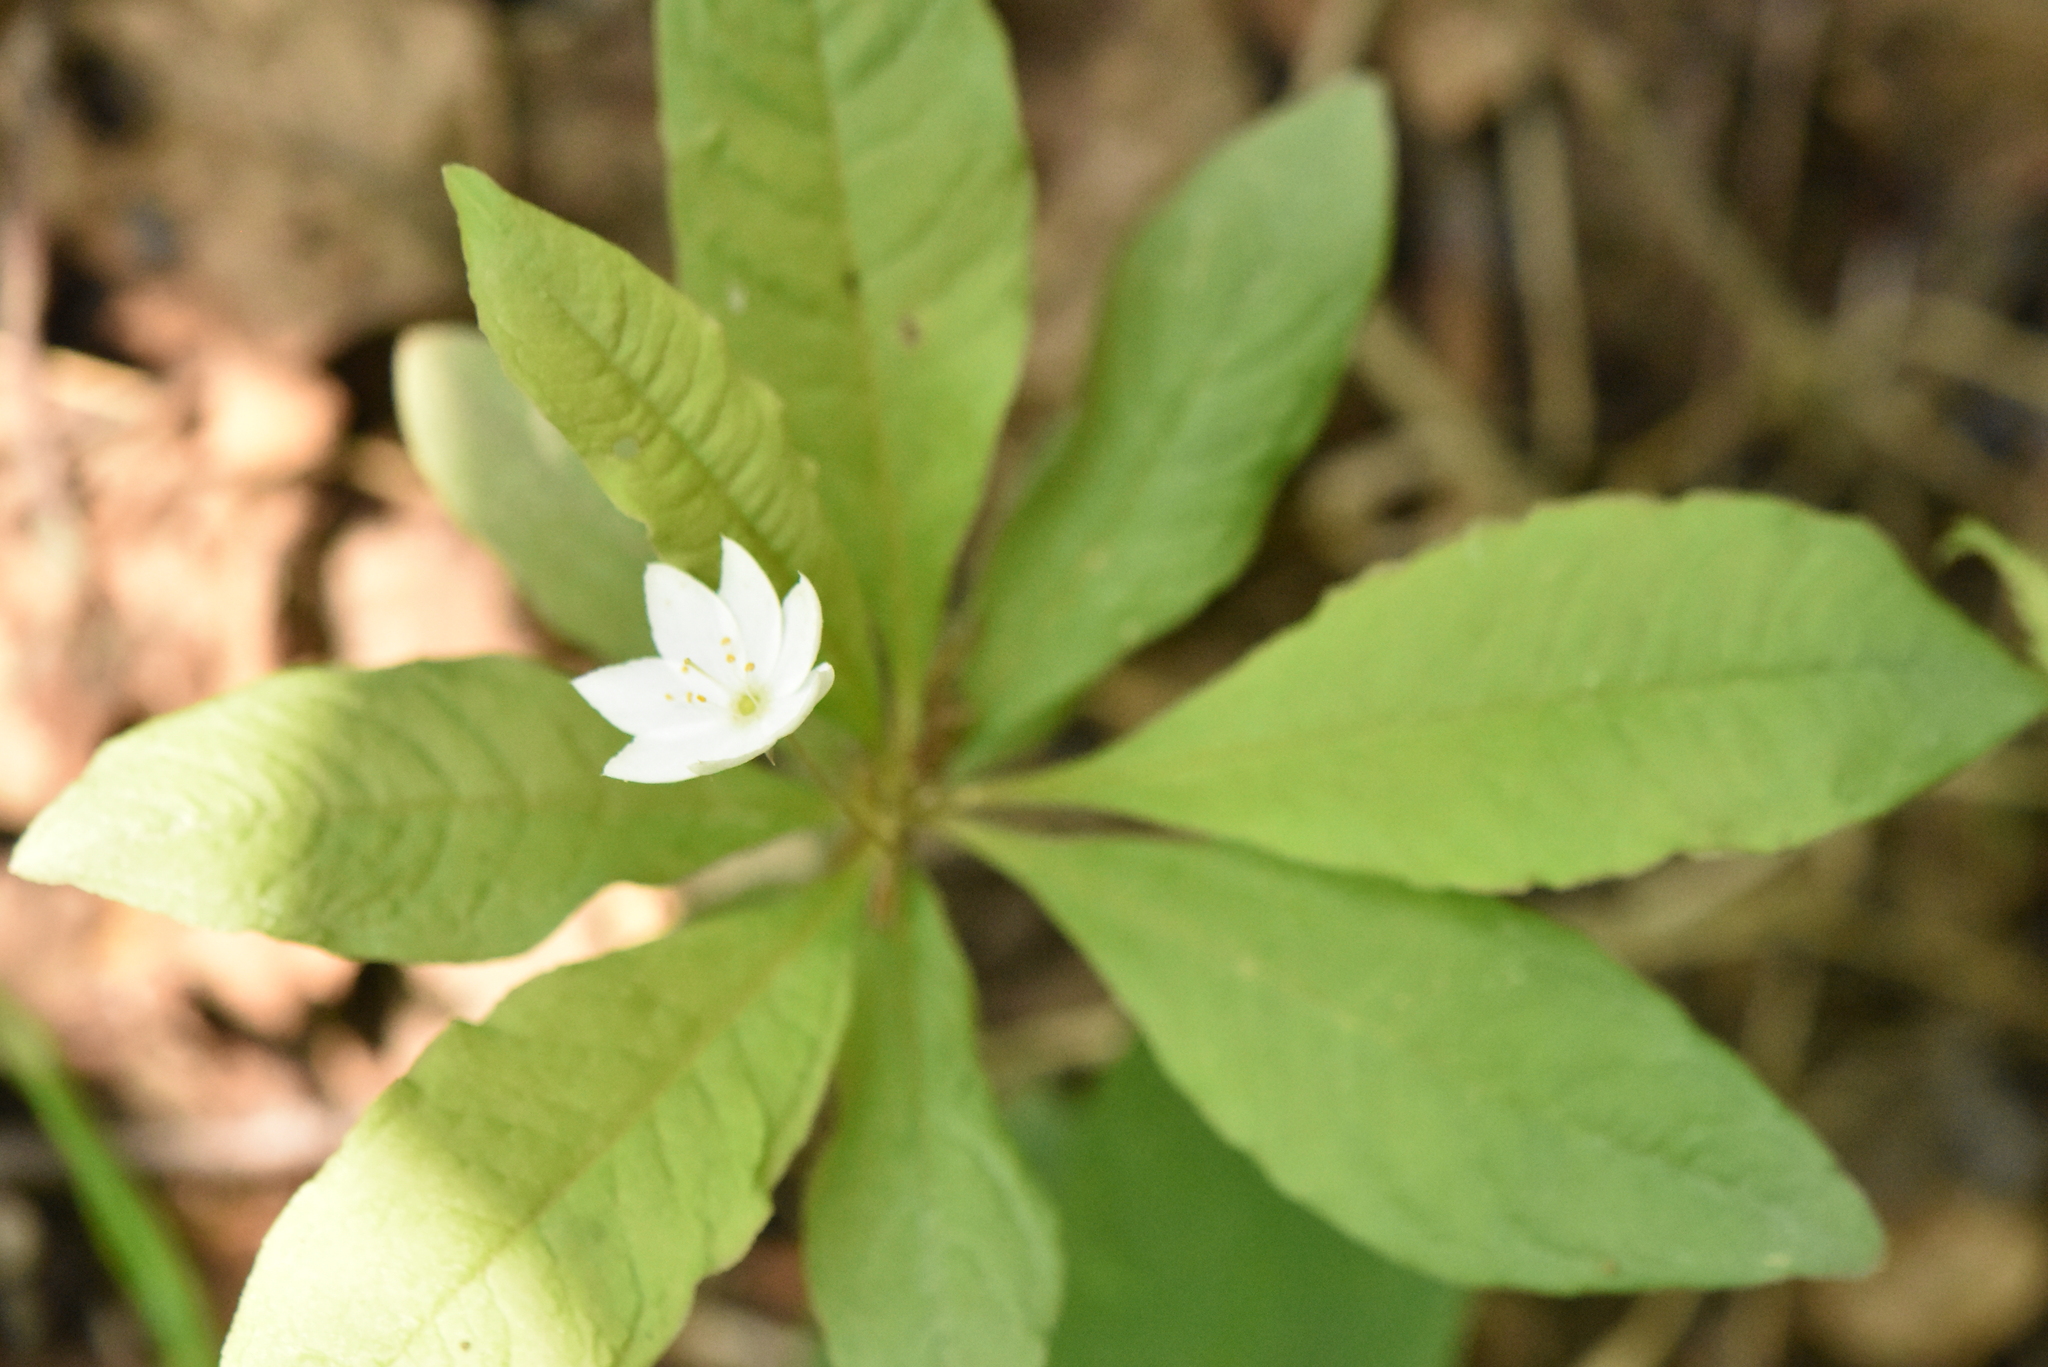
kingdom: Plantae
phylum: Tracheophyta
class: Magnoliopsida
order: Ericales
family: Primulaceae
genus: Lysimachia
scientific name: Lysimachia europaea
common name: Arctic starflower
